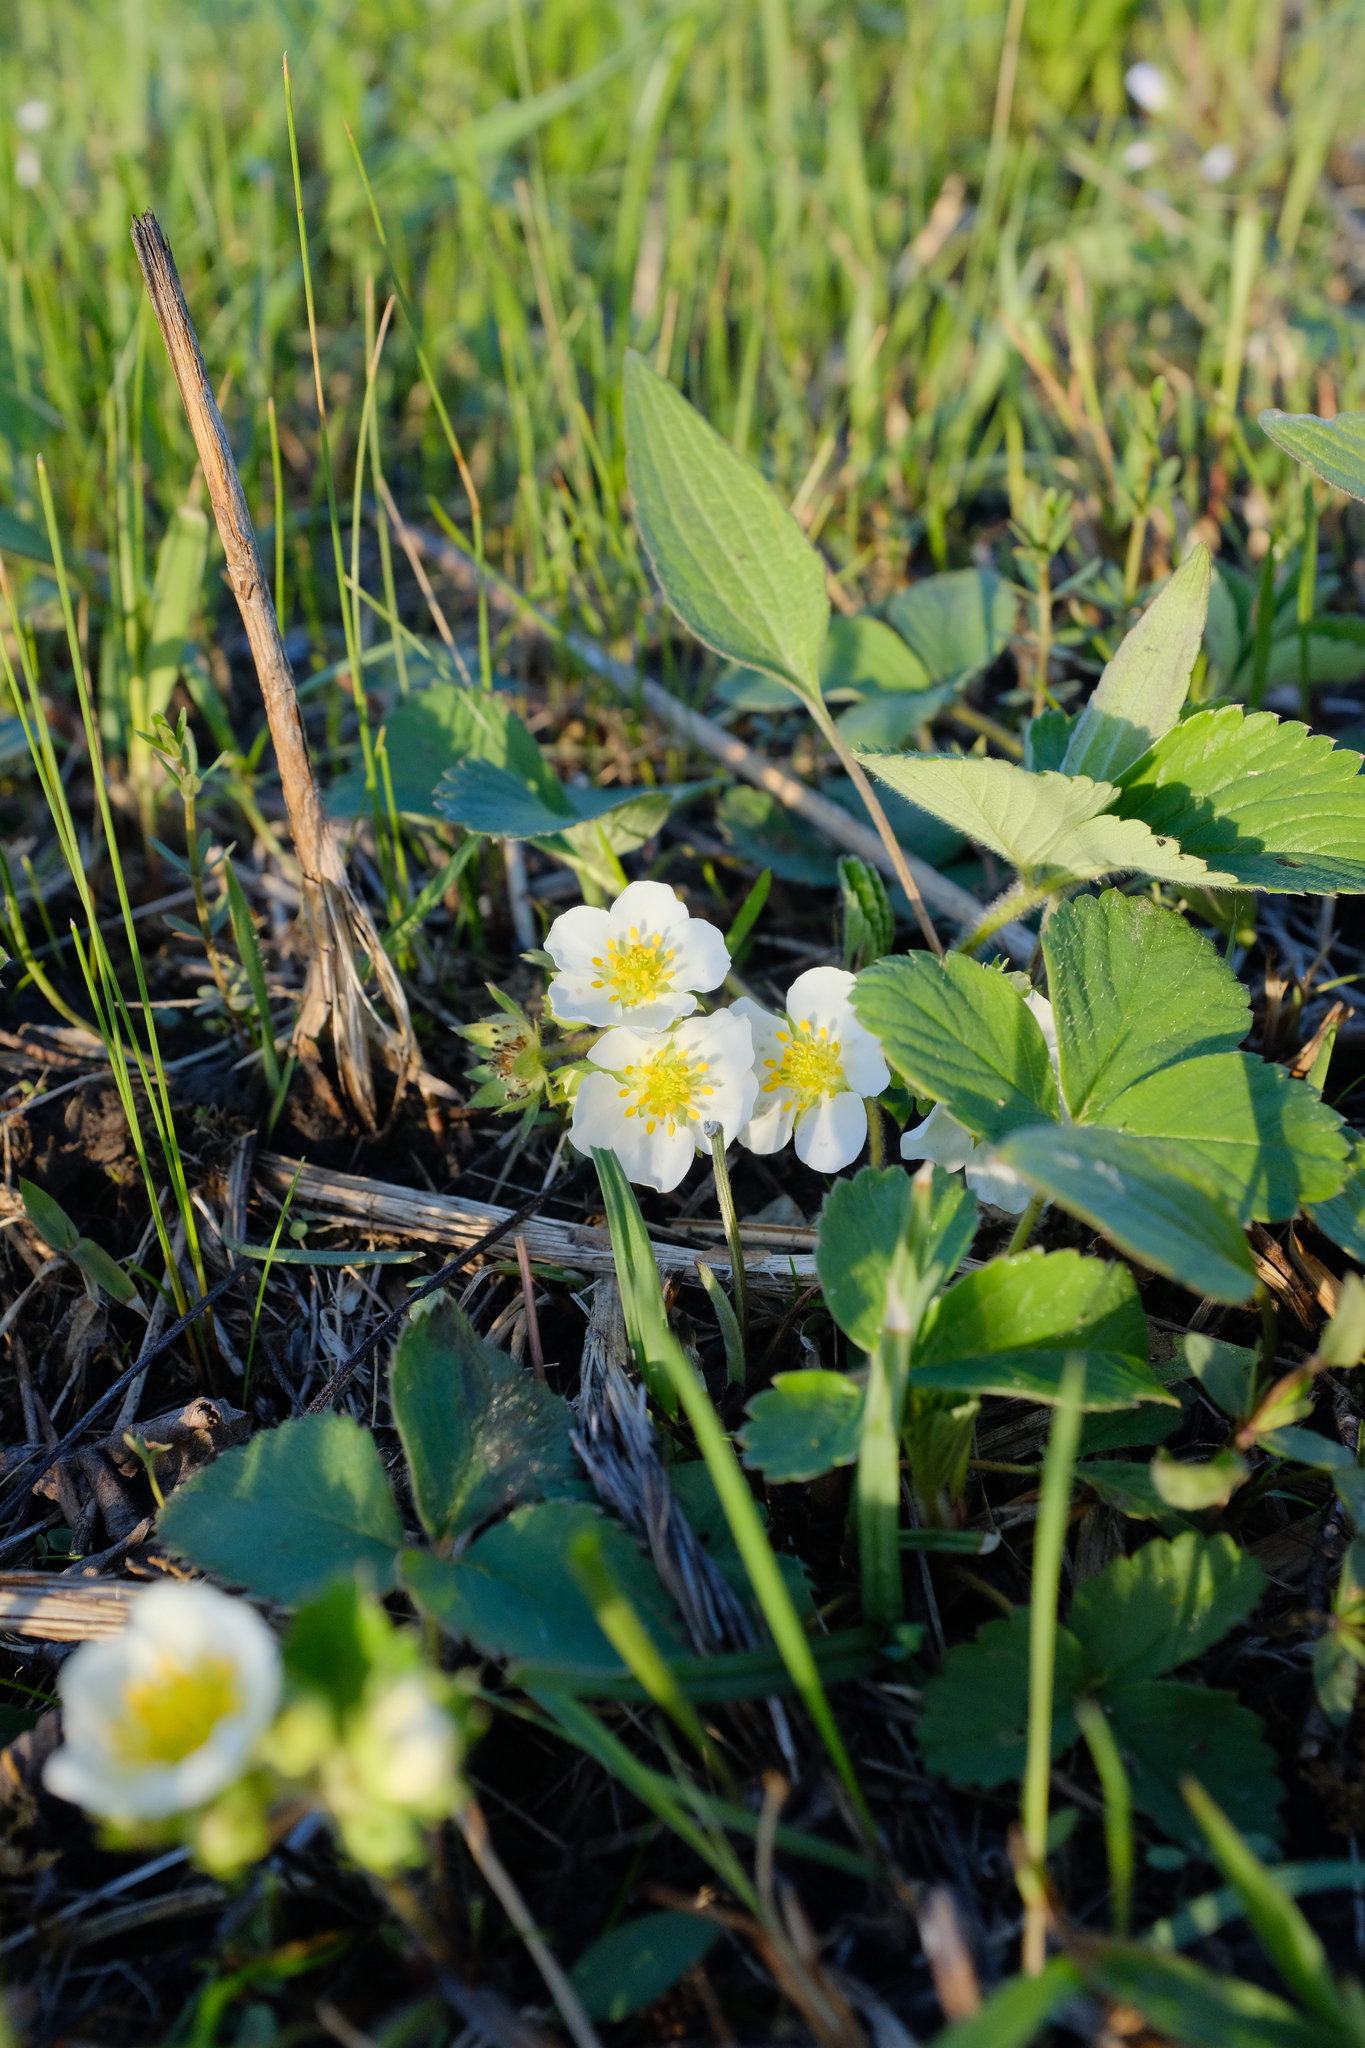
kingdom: Plantae
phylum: Tracheophyta
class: Magnoliopsida
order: Rosales
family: Rosaceae
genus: Fragaria
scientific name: Fragaria virginiana
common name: Thickleaved wild strawberry
